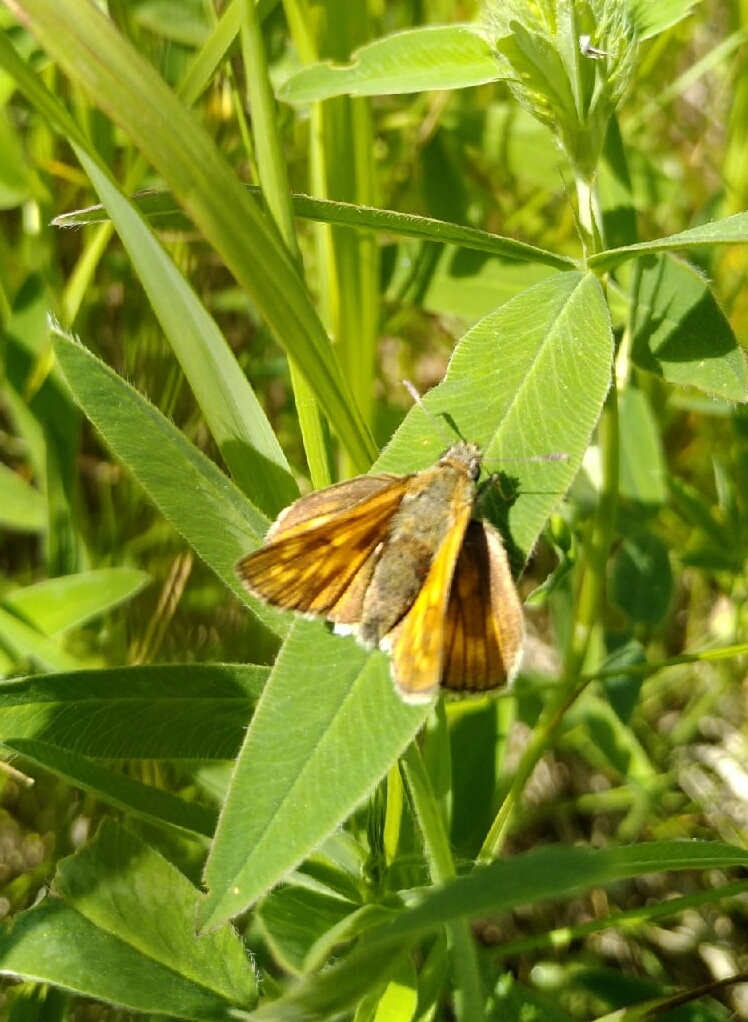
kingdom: Animalia
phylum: Arthropoda
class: Insecta
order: Lepidoptera
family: Hesperiidae
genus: Ochlodes
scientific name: Ochlodes venata
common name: Large skipper
